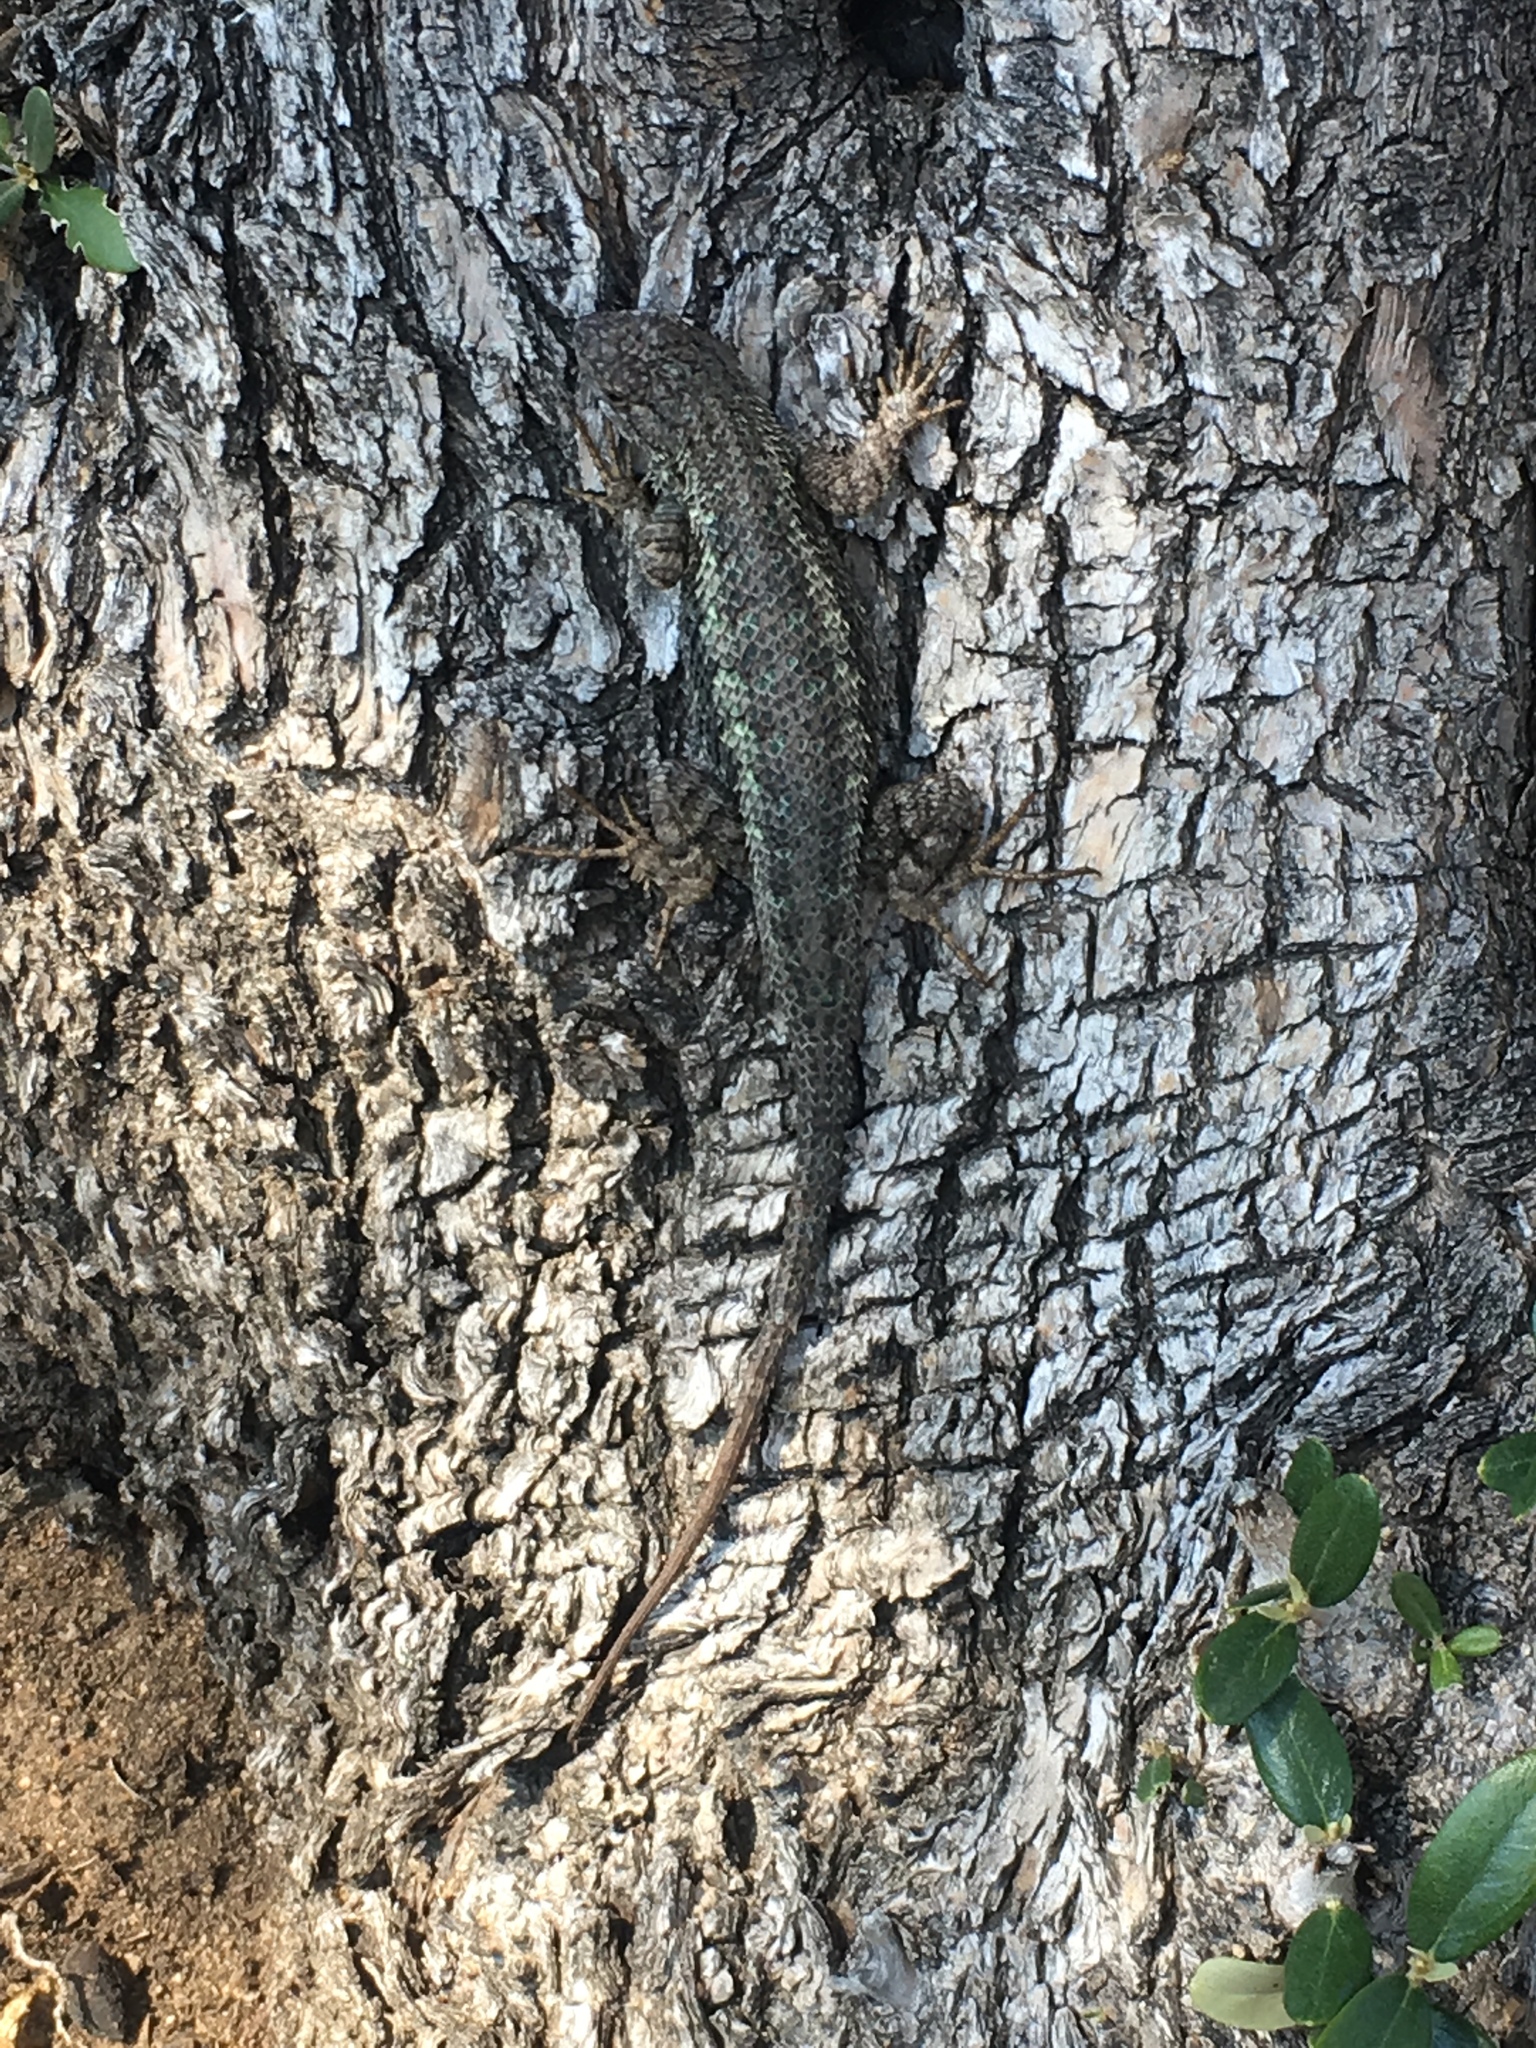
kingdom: Animalia
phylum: Chordata
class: Squamata
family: Phrynosomatidae
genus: Sceloporus
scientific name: Sceloporus occidentalis
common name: Western fence lizard
